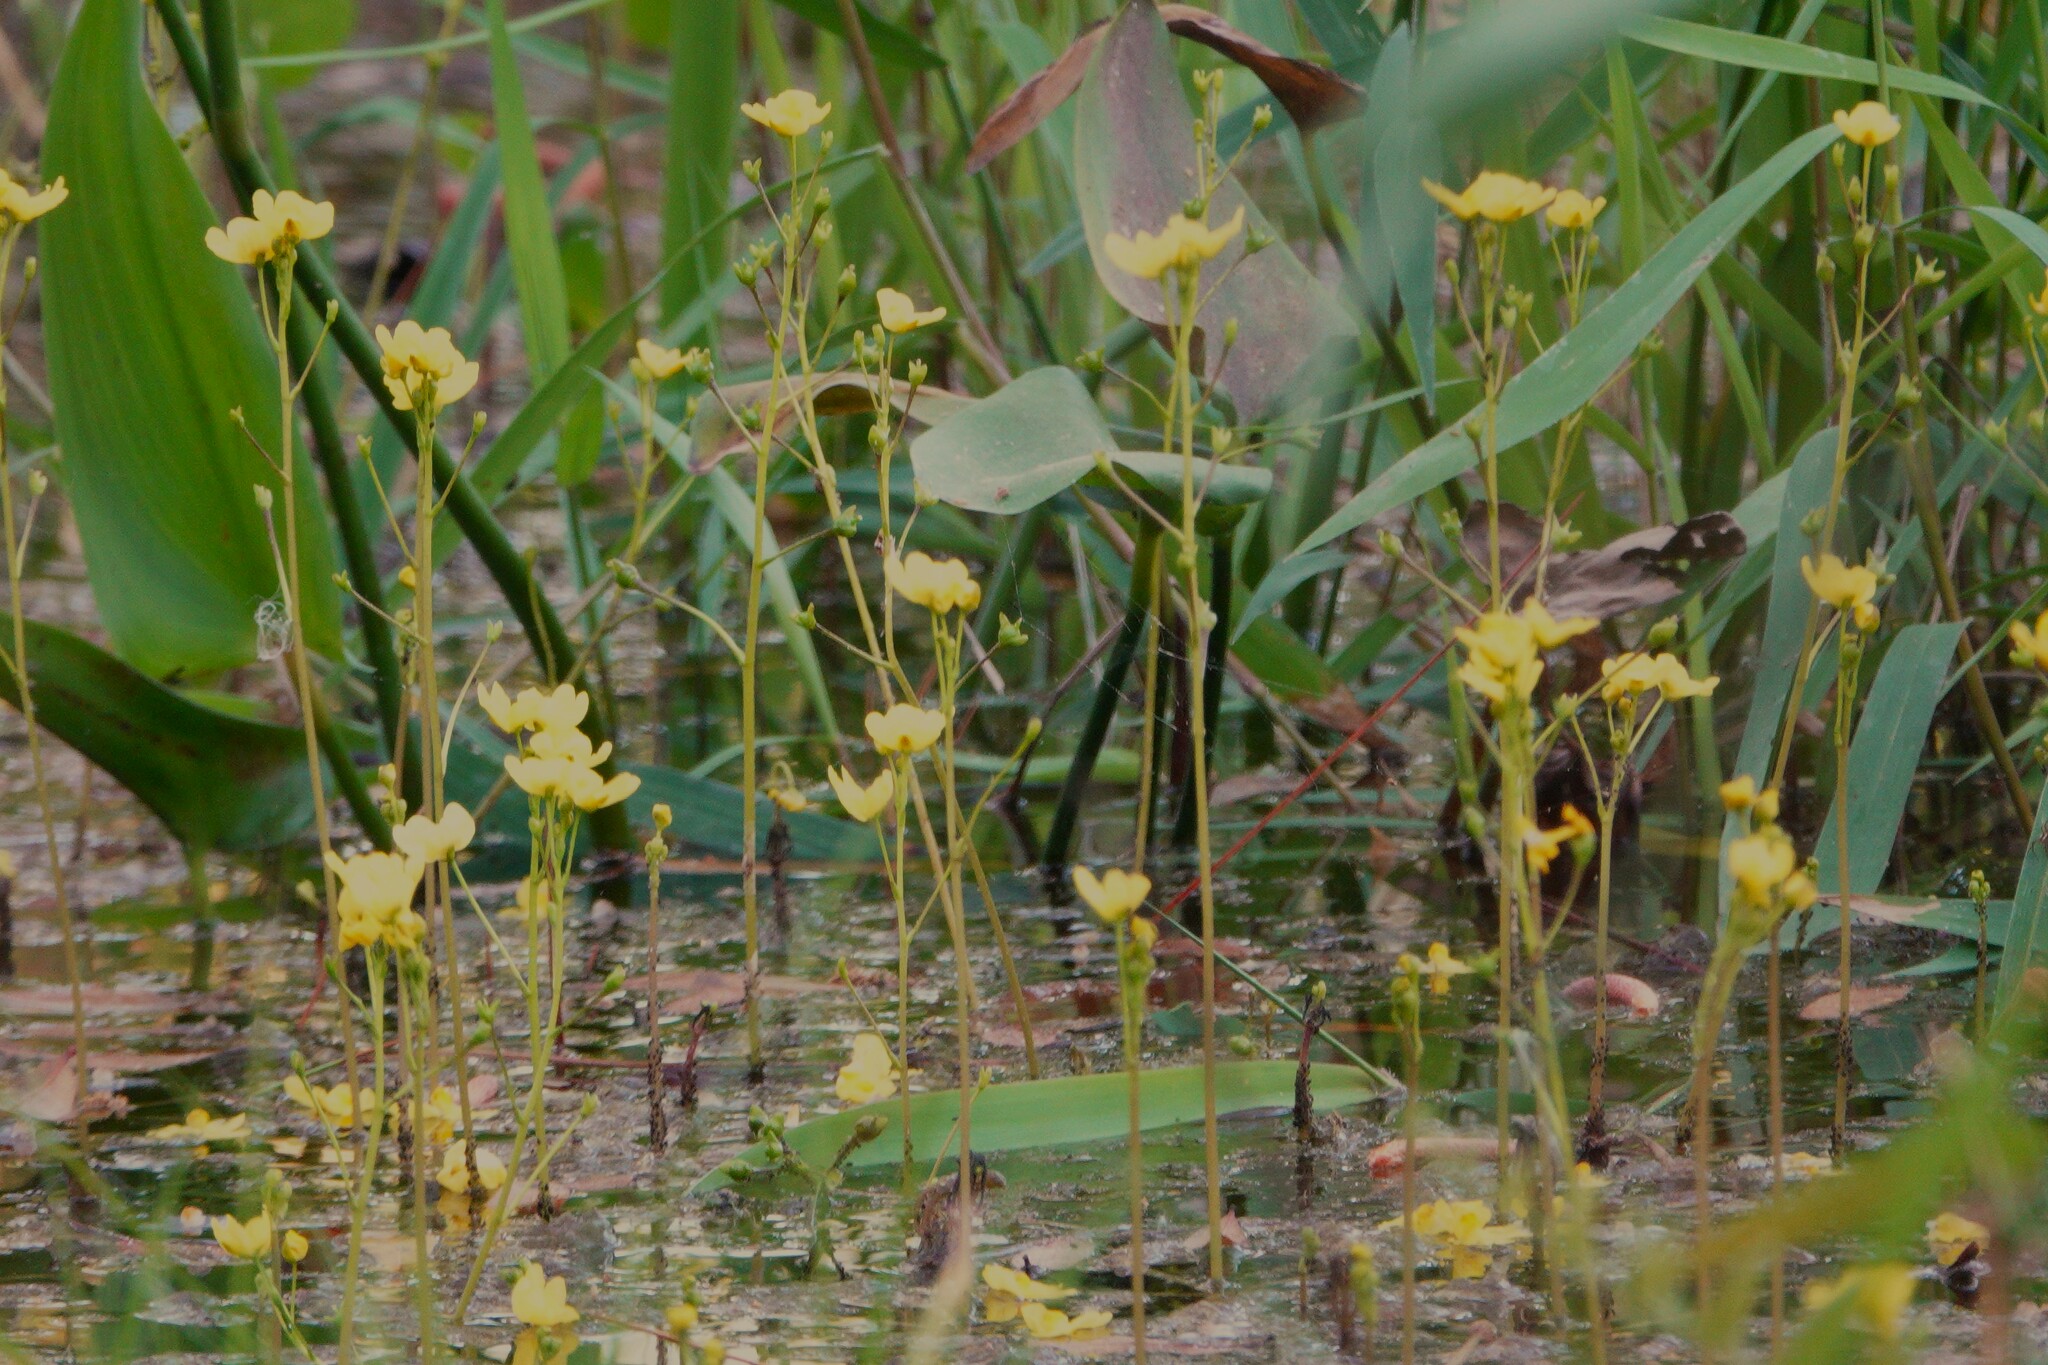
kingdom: Plantae
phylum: Tracheophyta
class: Magnoliopsida
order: Lamiales
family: Lentibulariaceae
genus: Utricularia
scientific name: Utricularia inflata
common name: Floating bladderwort
